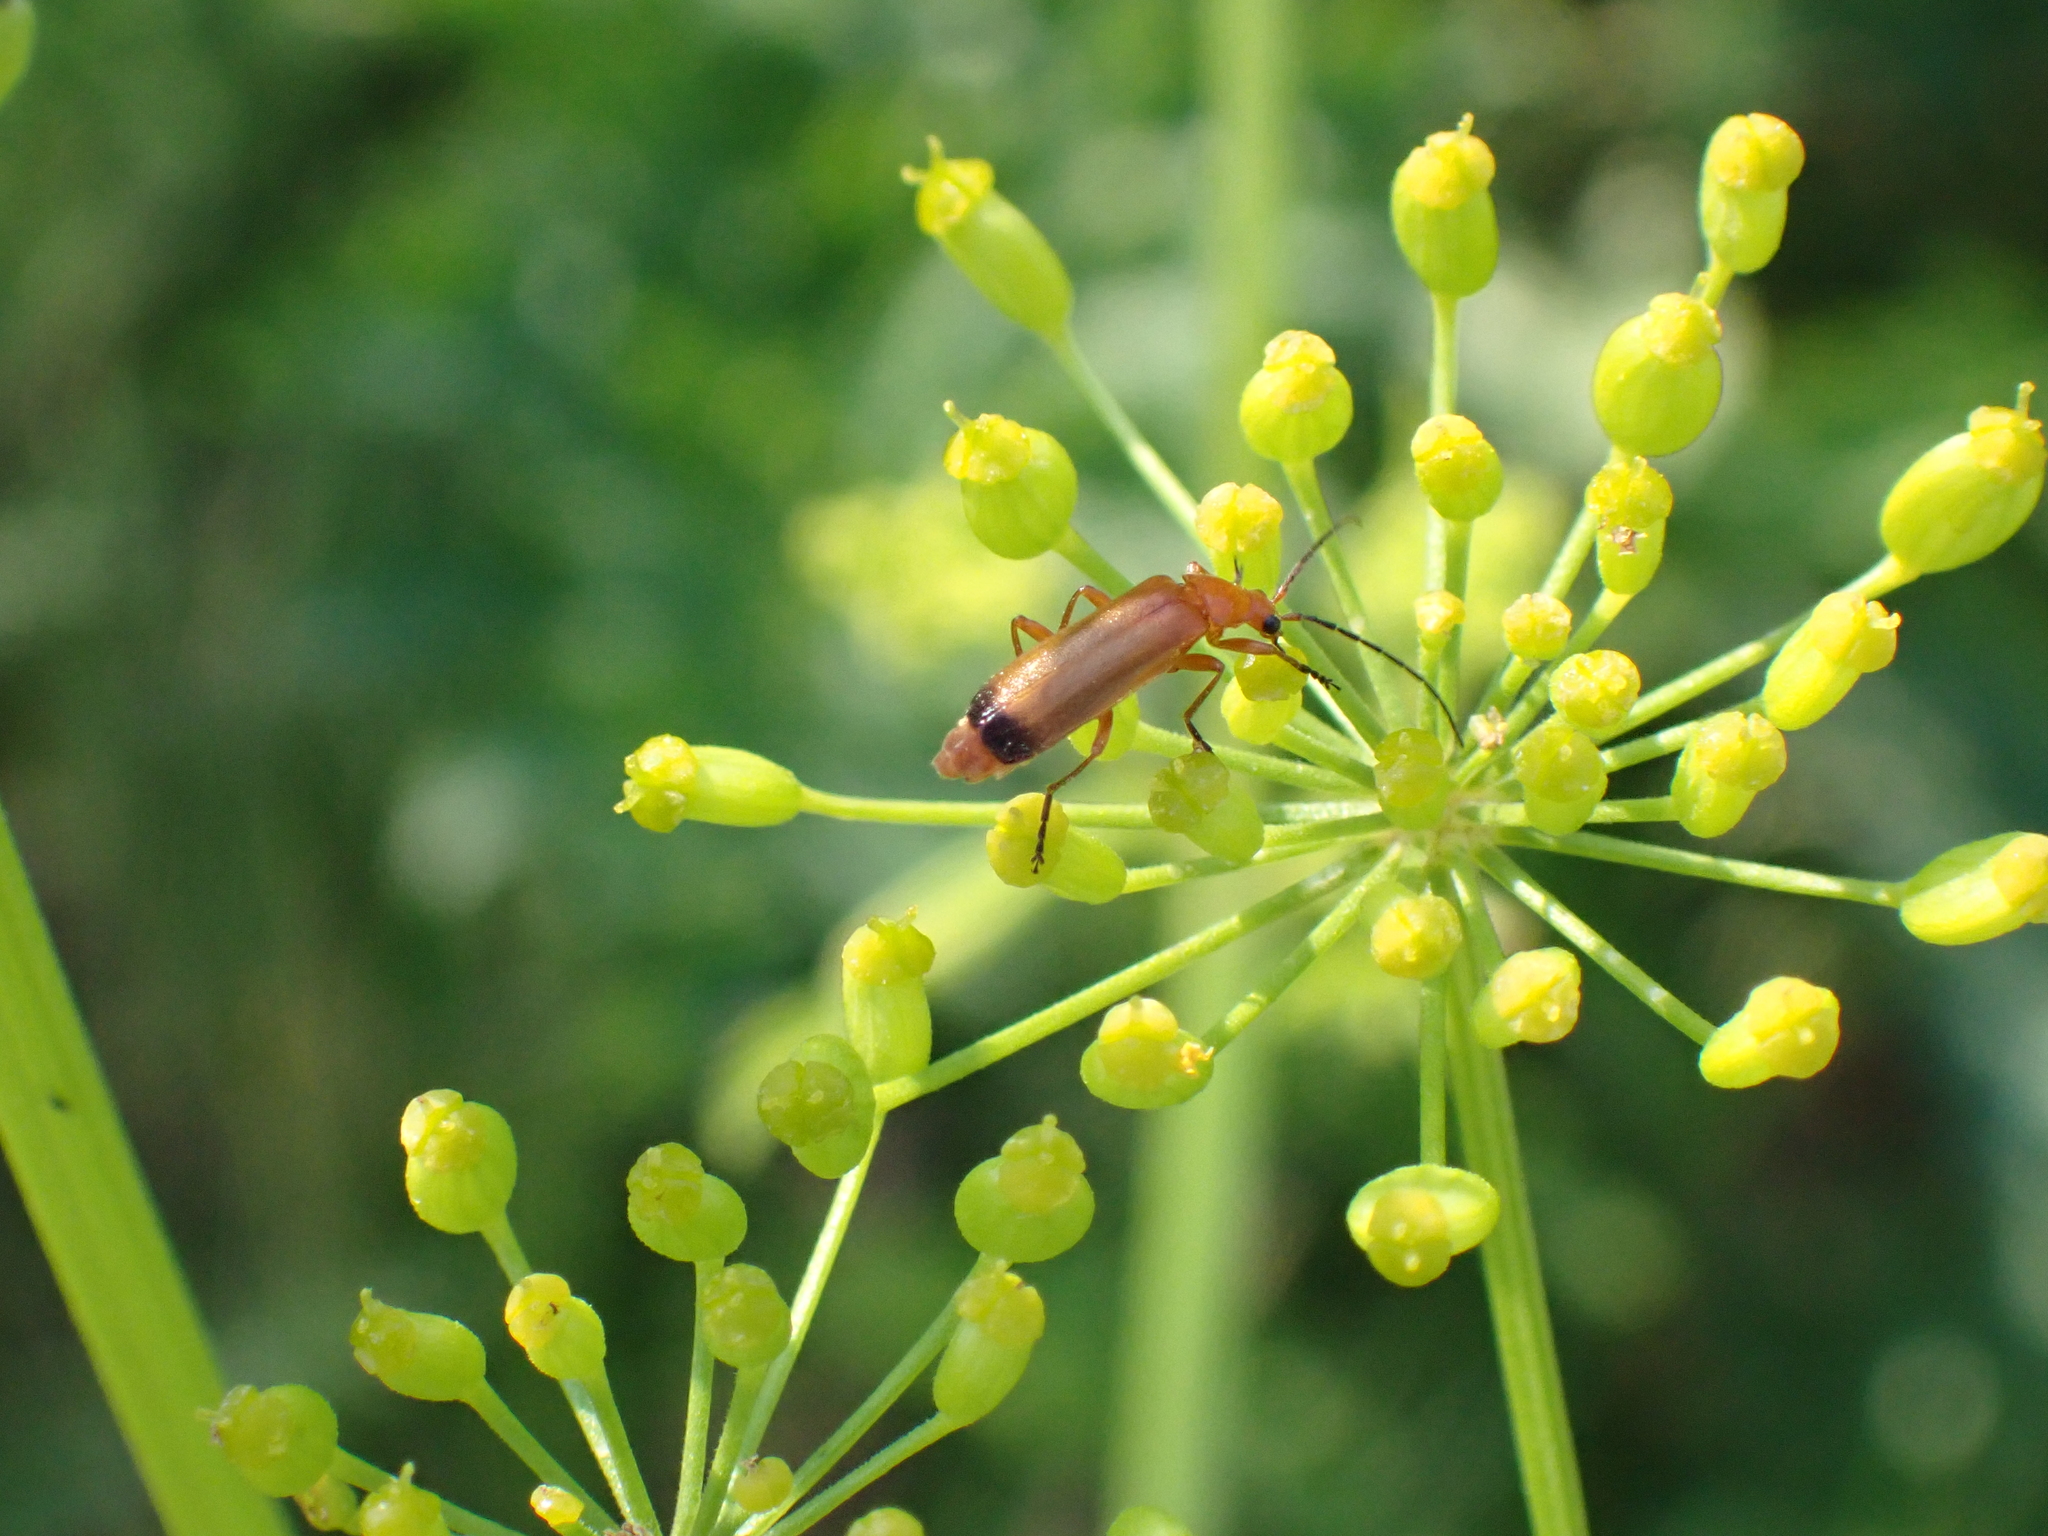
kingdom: Animalia
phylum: Arthropoda
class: Insecta
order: Coleoptera
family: Cantharidae
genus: Rhagonycha
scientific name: Rhagonycha fulva
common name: Common red soldier beetle
